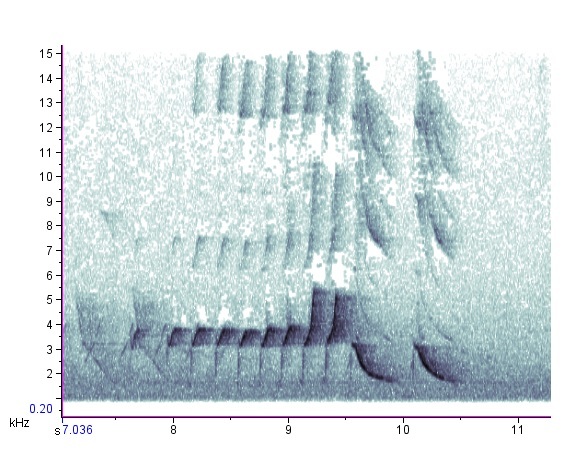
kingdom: Animalia
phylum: Chordata
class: Aves
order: Passeriformes
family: Cardinalidae
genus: Cardinalis
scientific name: Cardinalis cardinalis
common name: Northern cardinal
